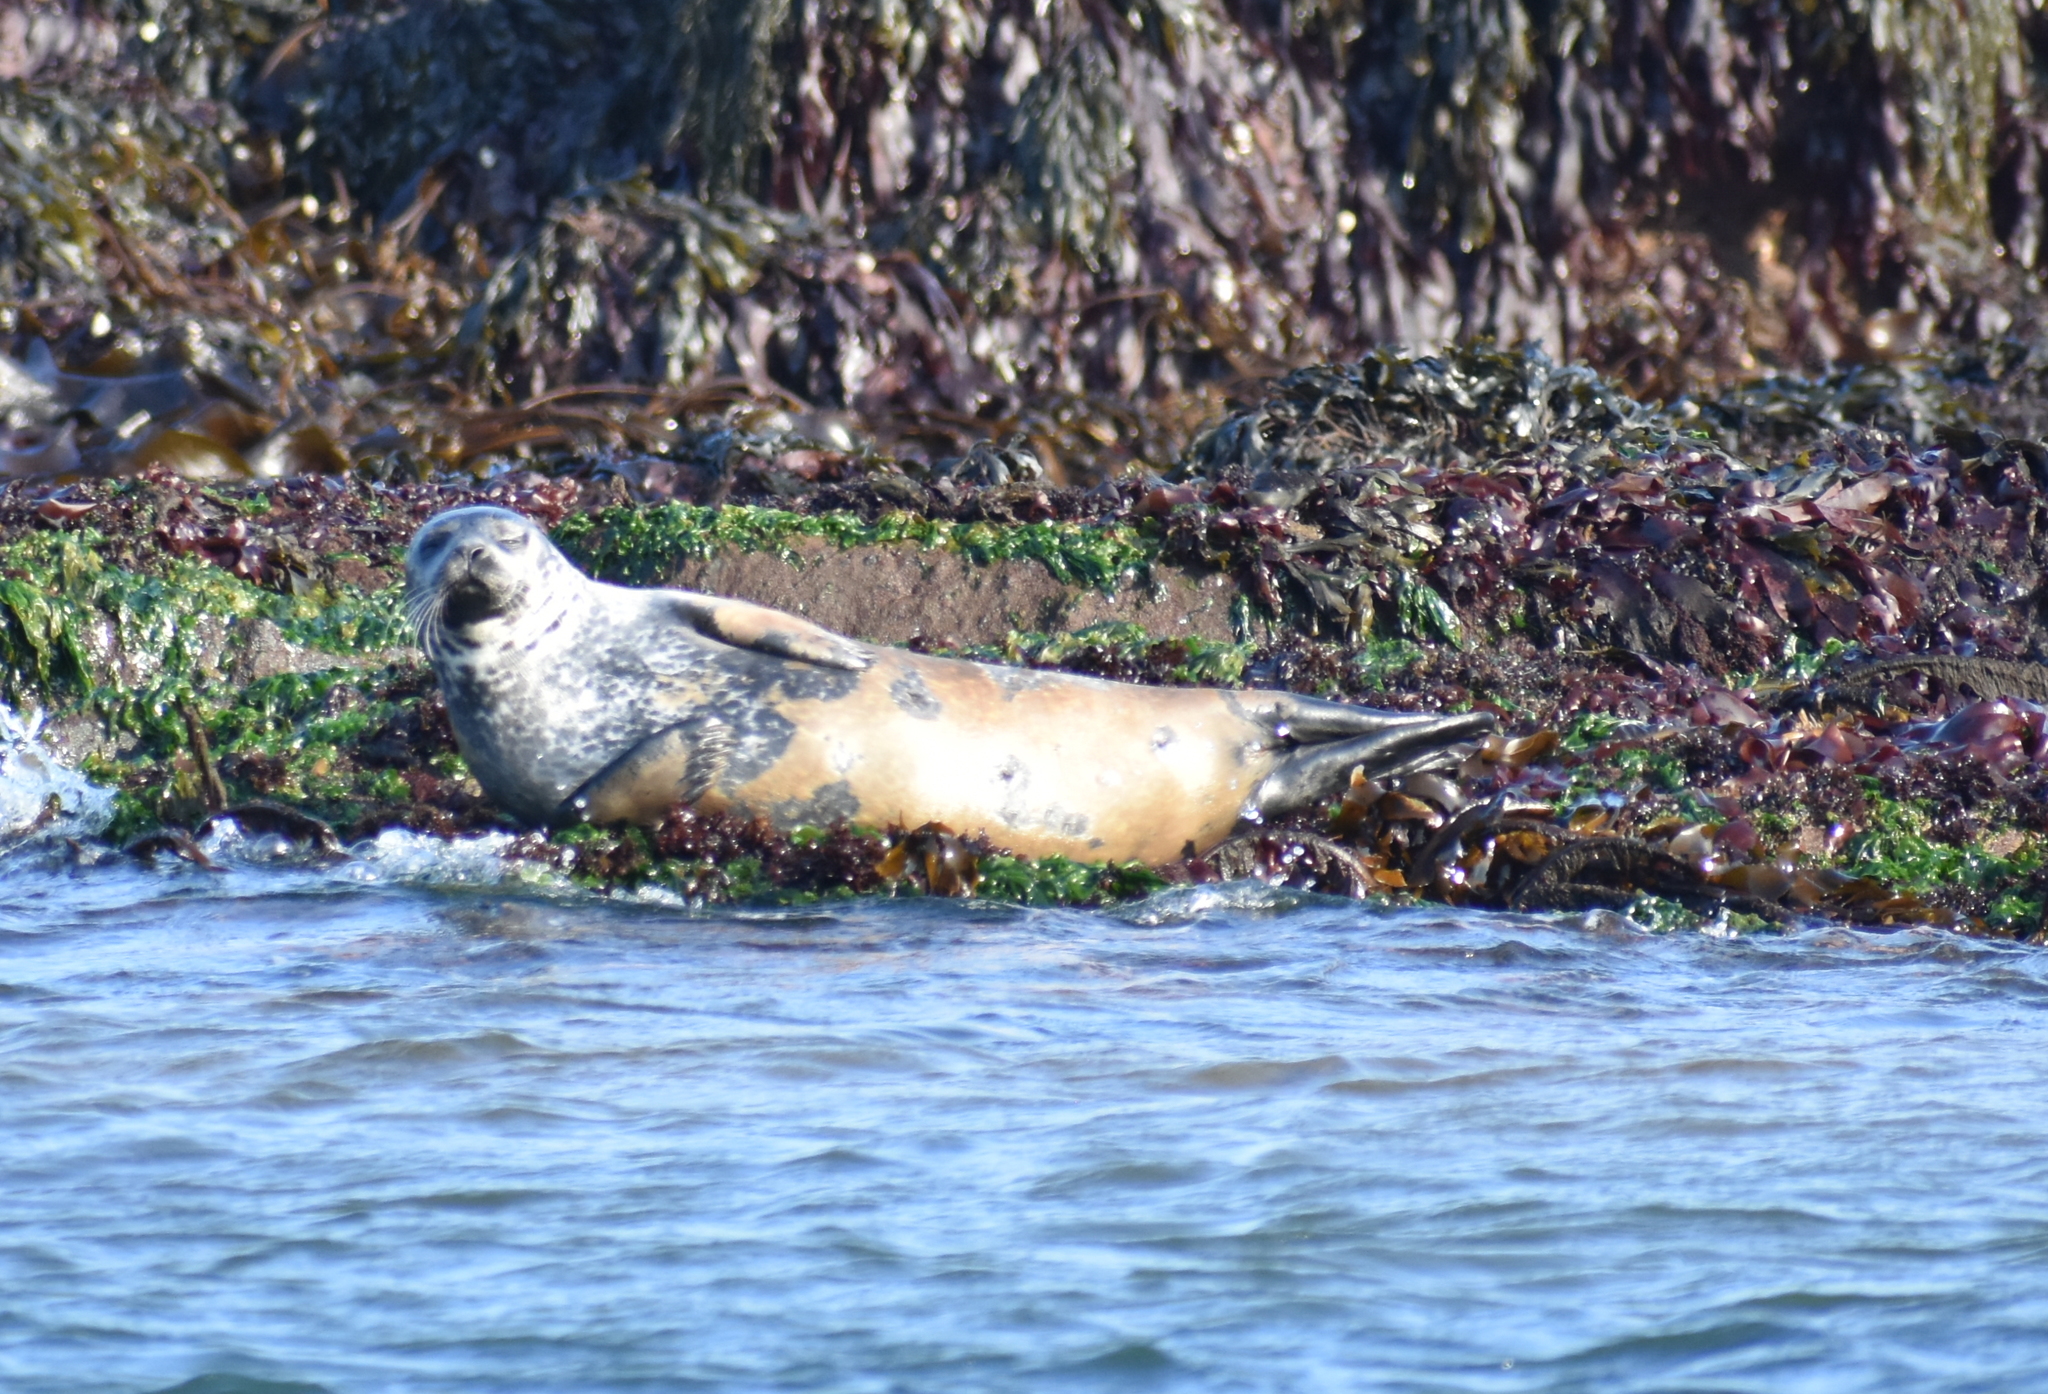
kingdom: Animalia
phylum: Chordata
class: Mammalia
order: Carnivora
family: Phocidae
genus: Phoca
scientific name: Phoca vitulina
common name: Harbor seal
